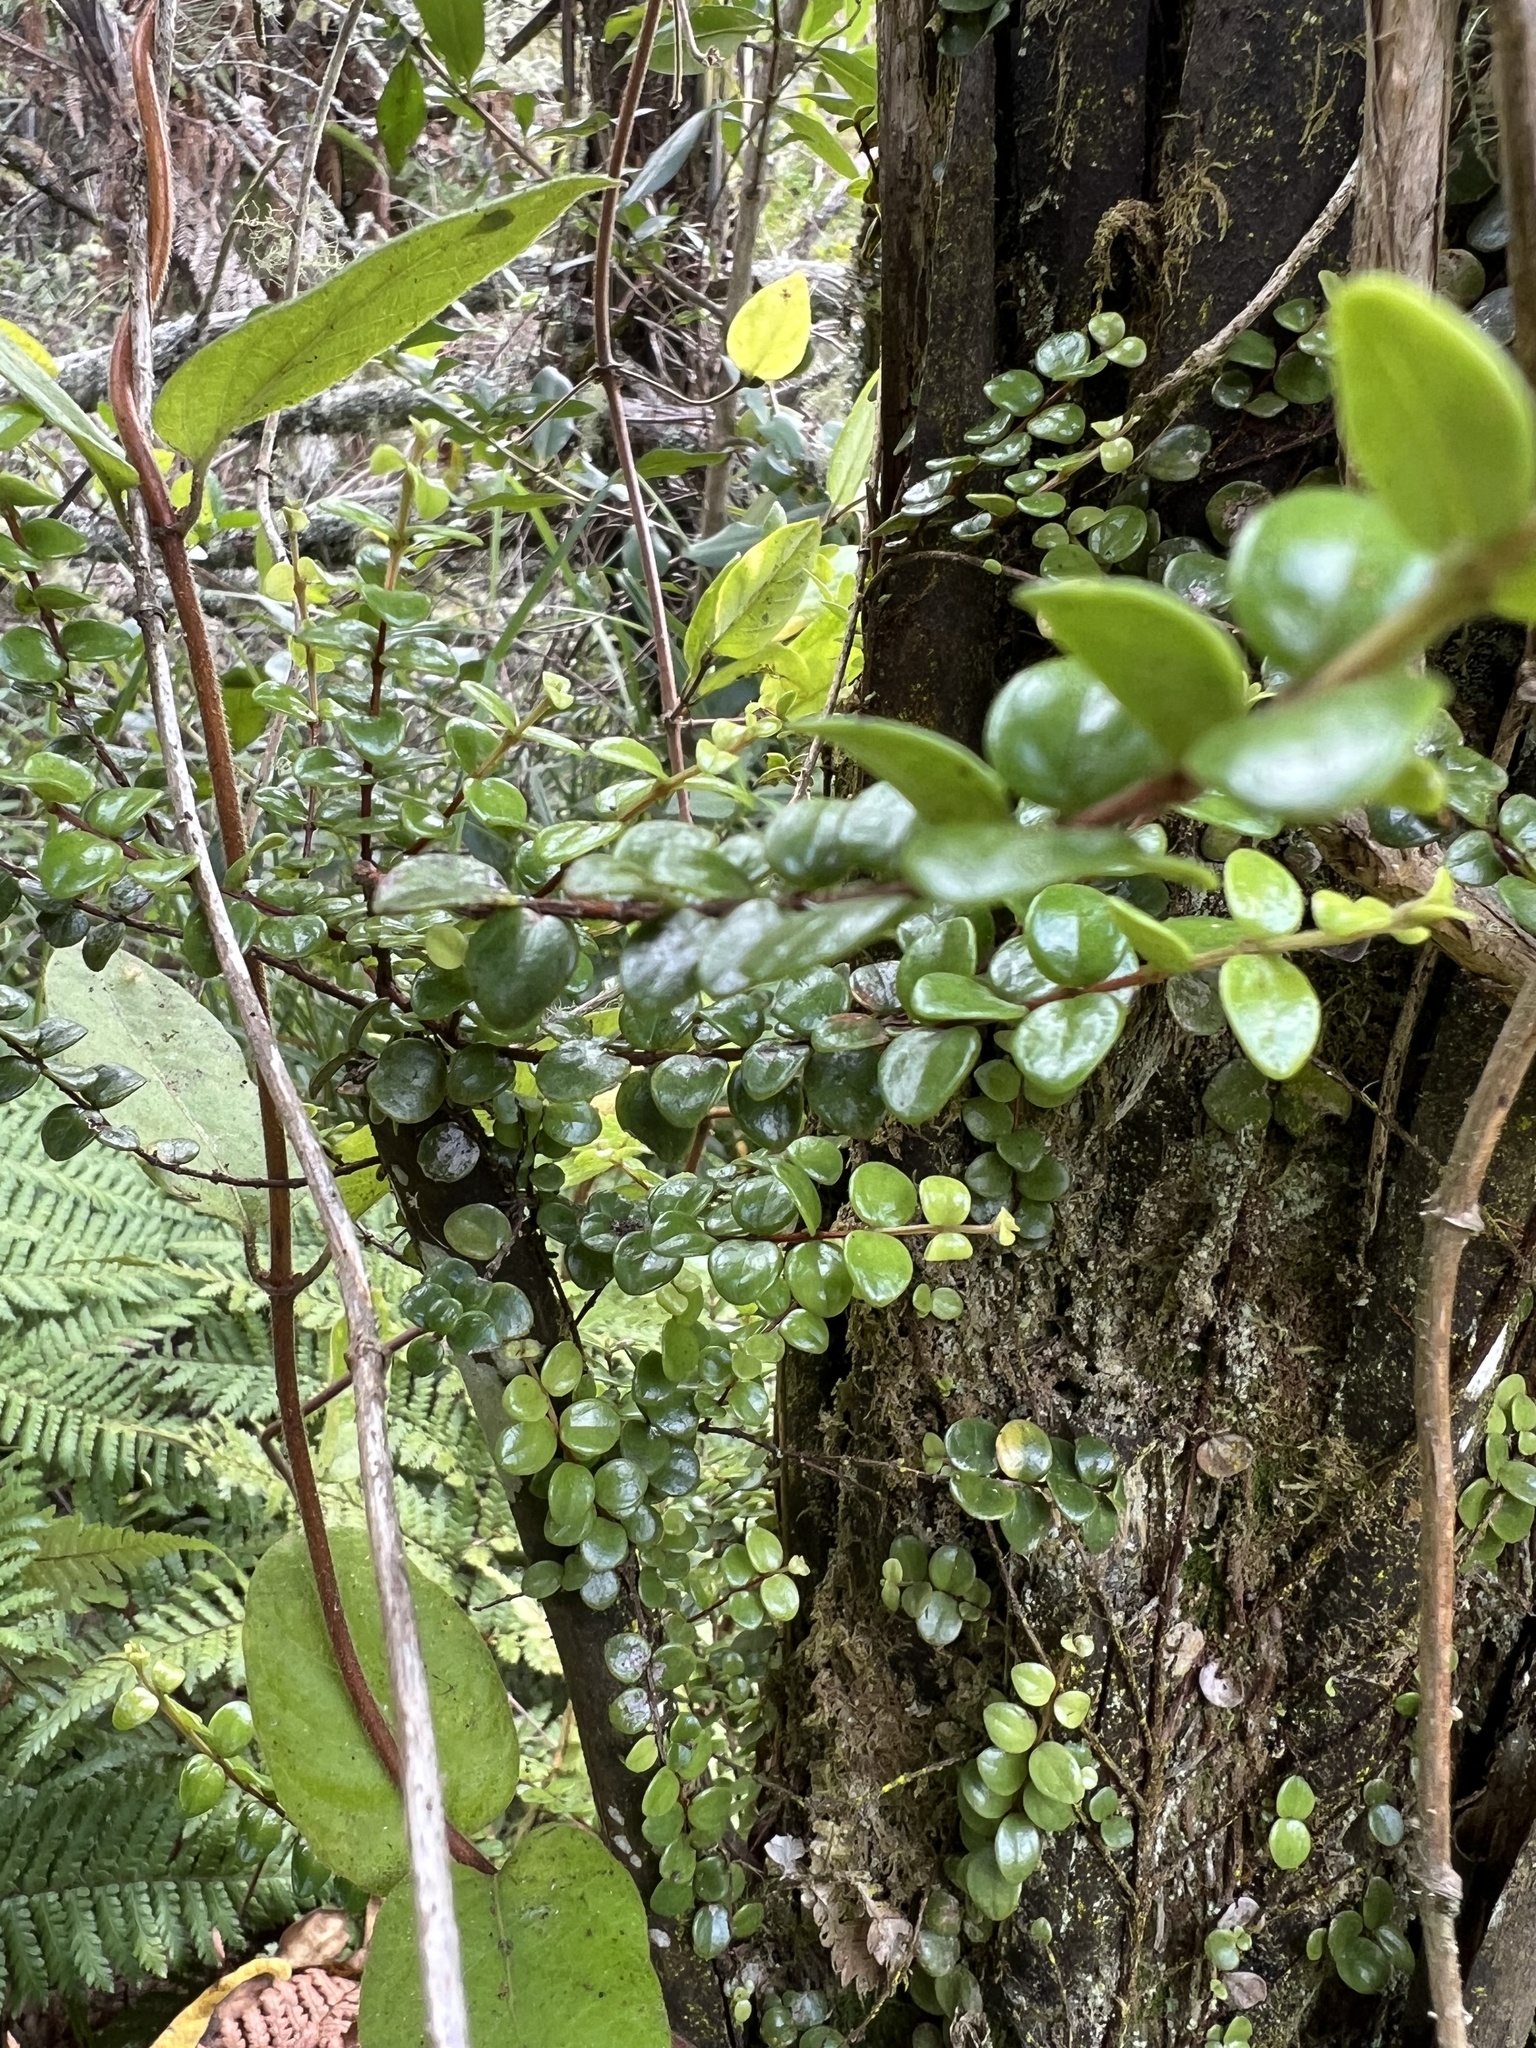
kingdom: Plantae
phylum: Tracheophyta
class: Magnoliopsida
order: Myrtales
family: Myrtaceae
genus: Metrosideros
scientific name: Metrosideros perforata
